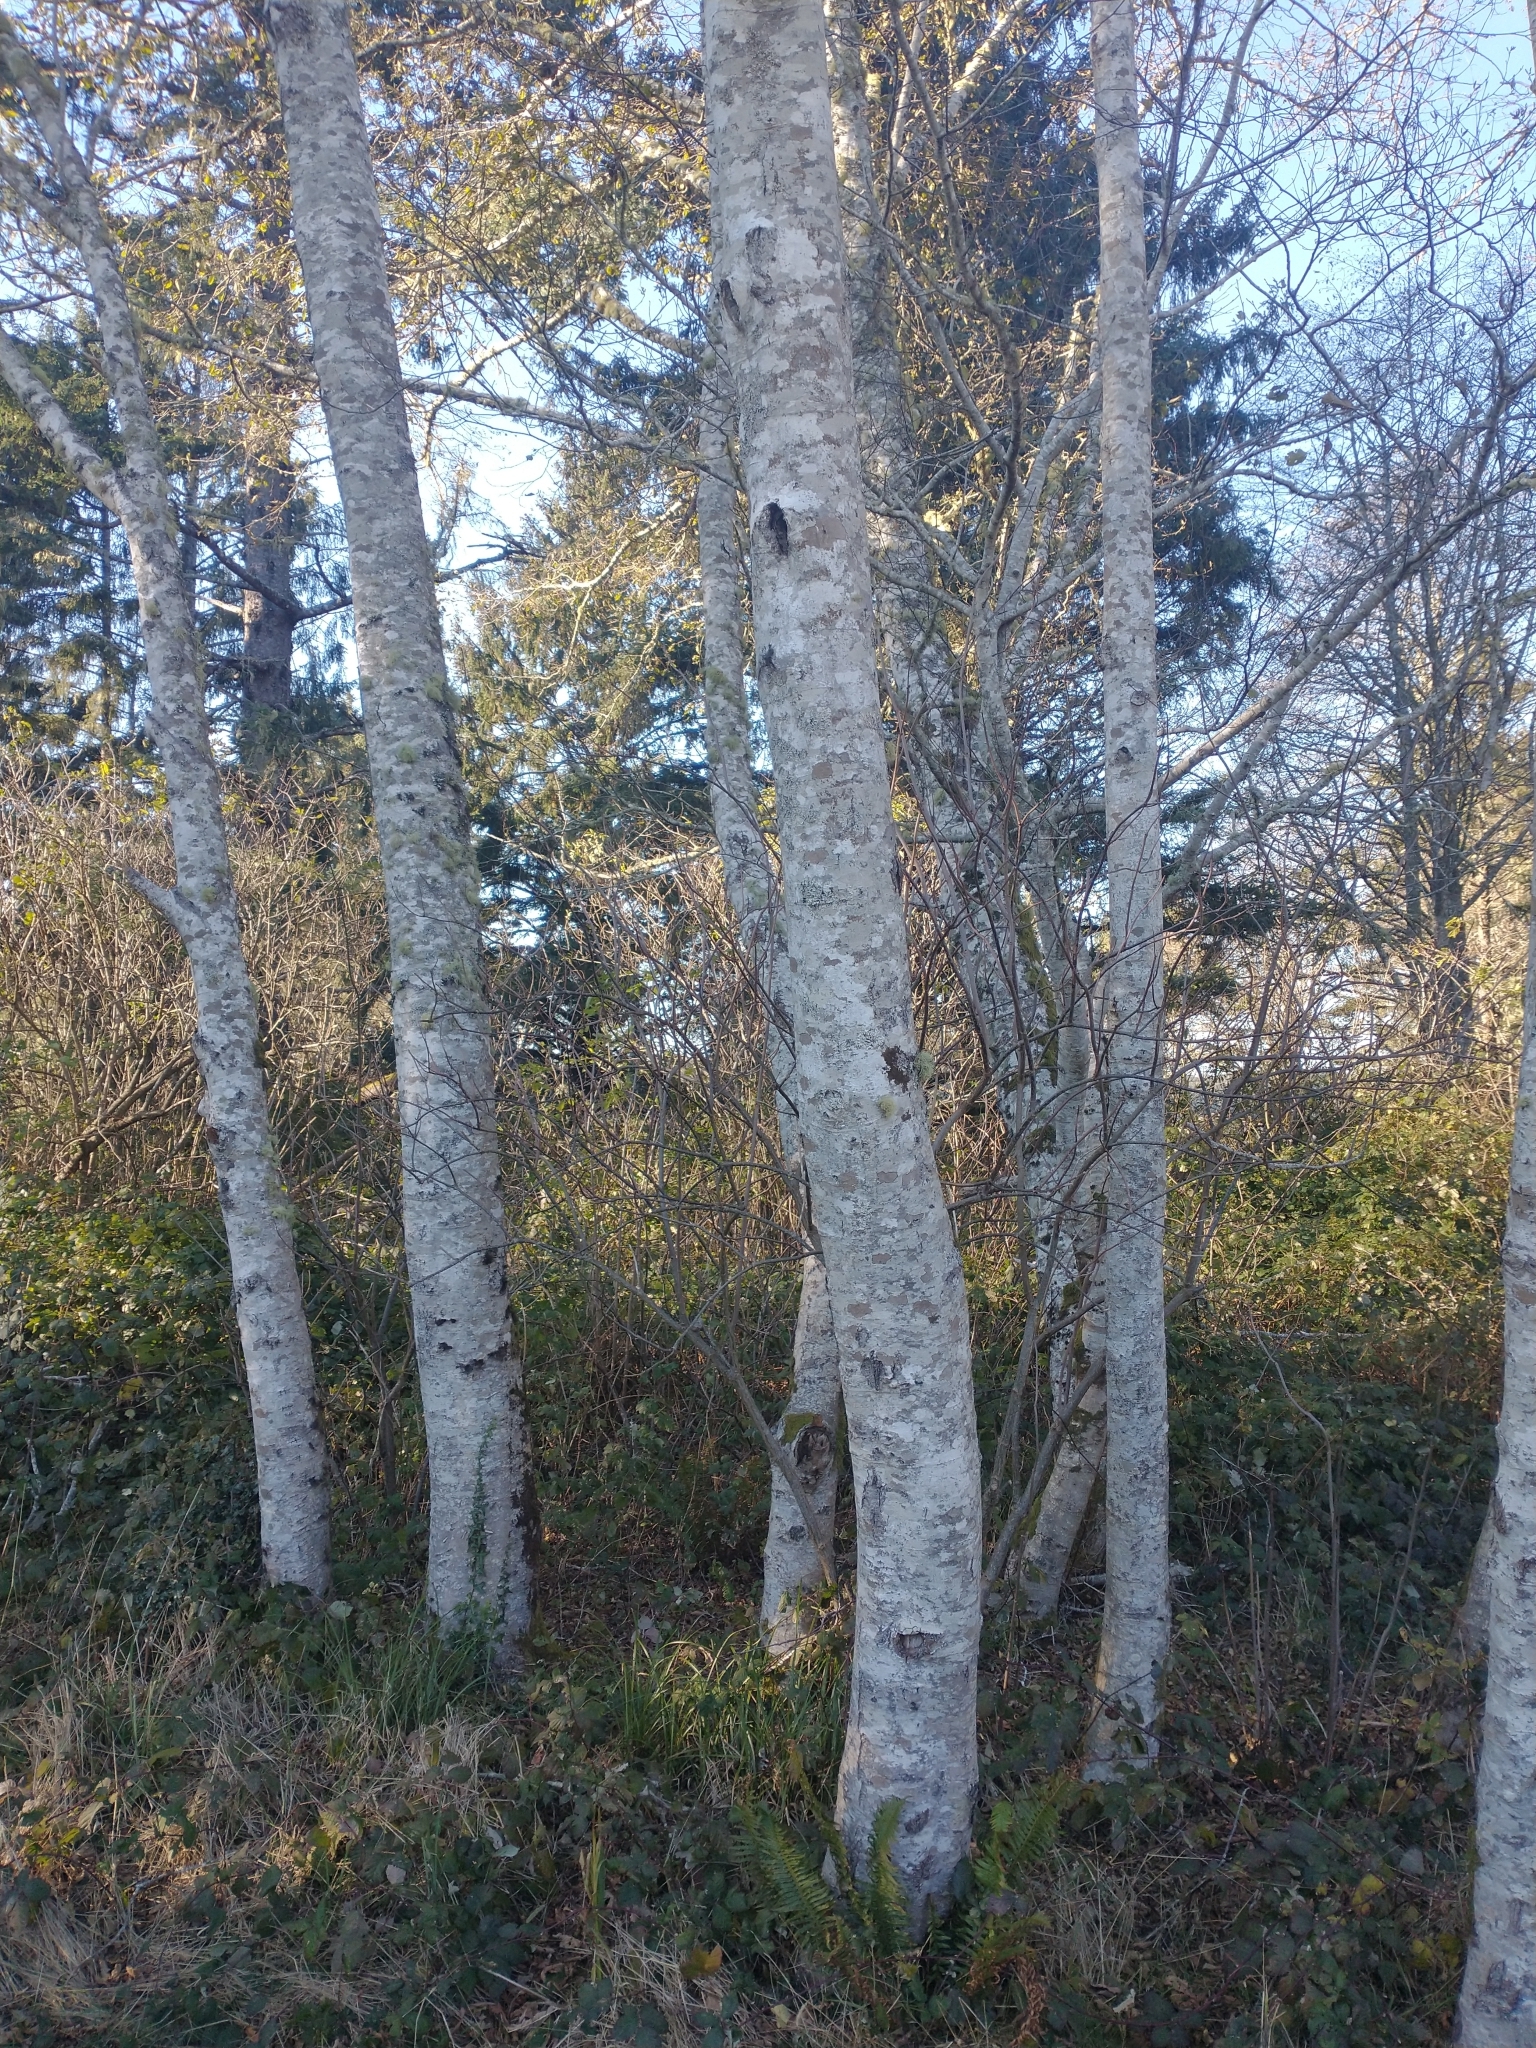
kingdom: Plantae
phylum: Tracheophyta
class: Magnoliopsida
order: Fagales
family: Betulaceae
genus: Alnus
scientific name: Alnus rubra
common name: Red alder
